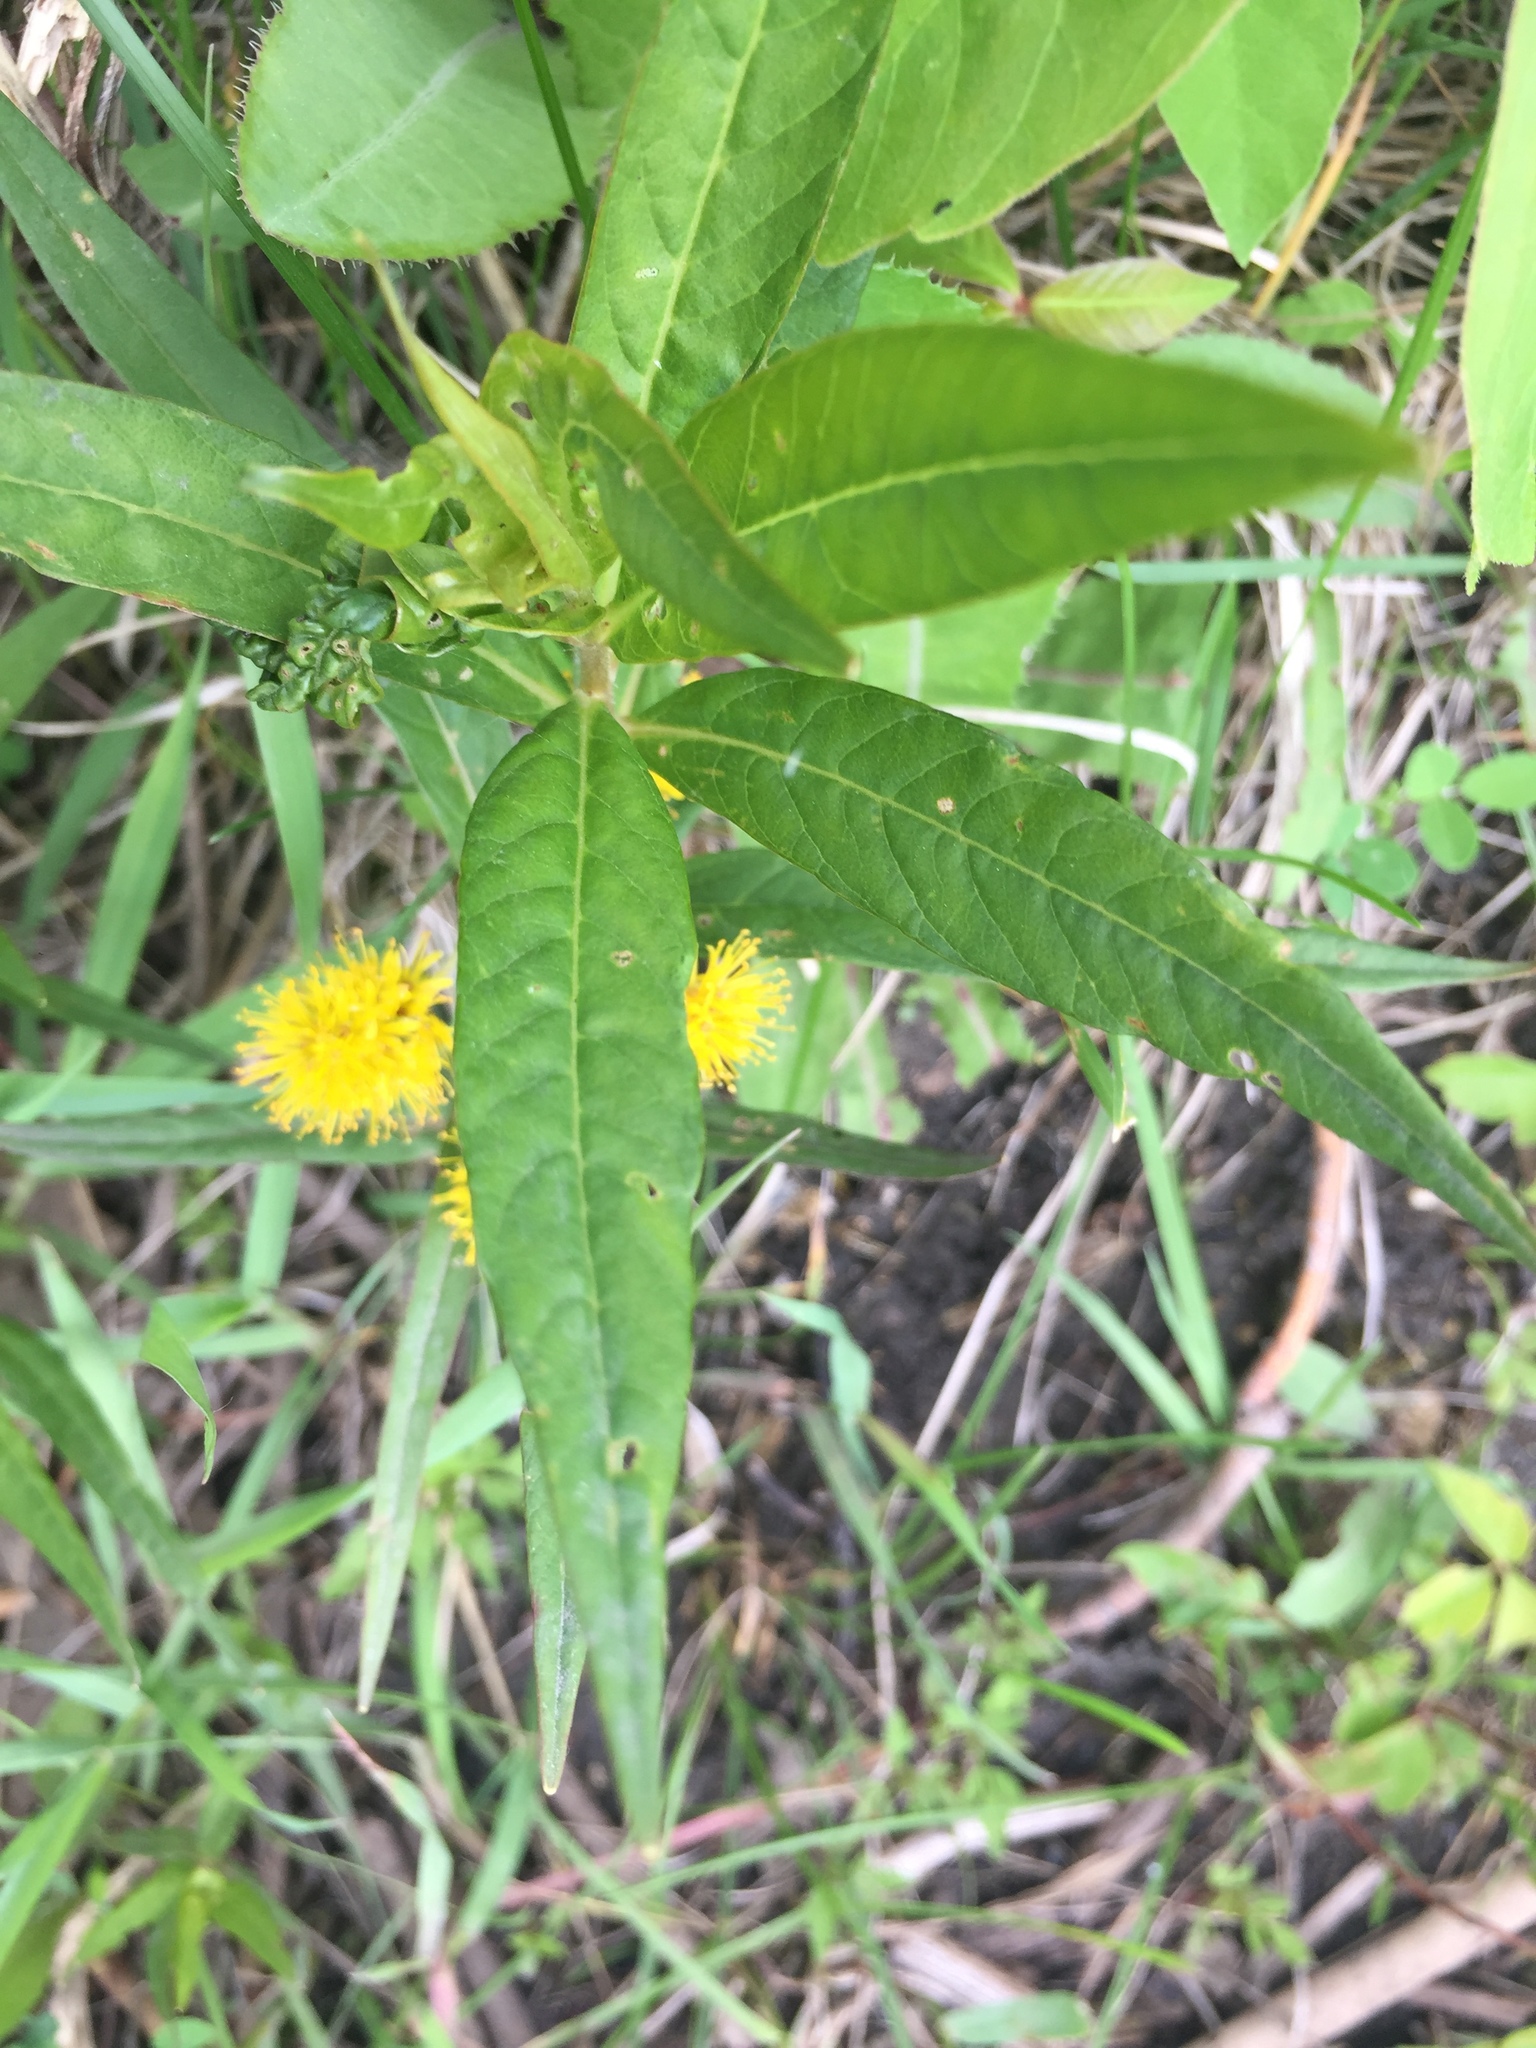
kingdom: Plantae
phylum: Tracheophyta
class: Magnoliopsida
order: Ericales
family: Primulaceae
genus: Lysimachia
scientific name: Lysimachia thyrsiflora
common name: Tufted loosestrife
